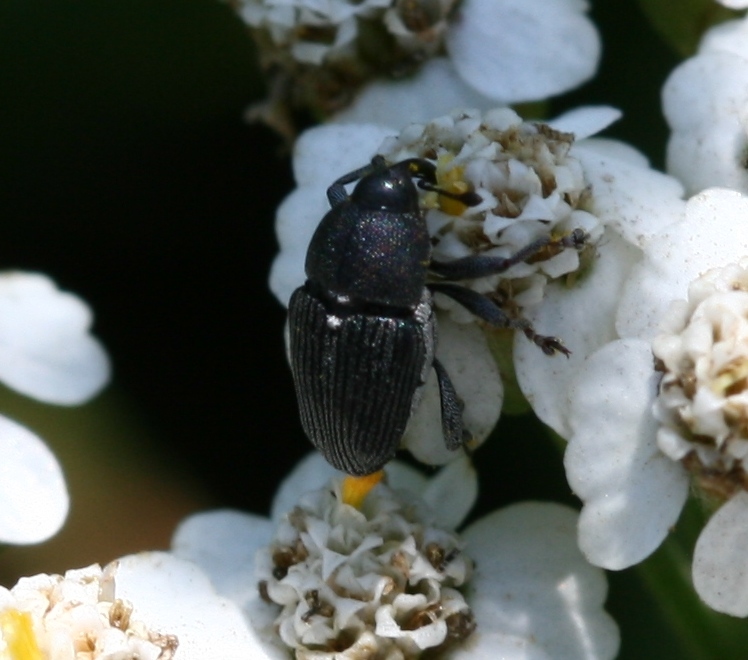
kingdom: Plantae
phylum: Tracheophyta
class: Magnoliopsida
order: Asterales
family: Asteraceae
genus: Achillea
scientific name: Achillea millefolium
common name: Yarrow
